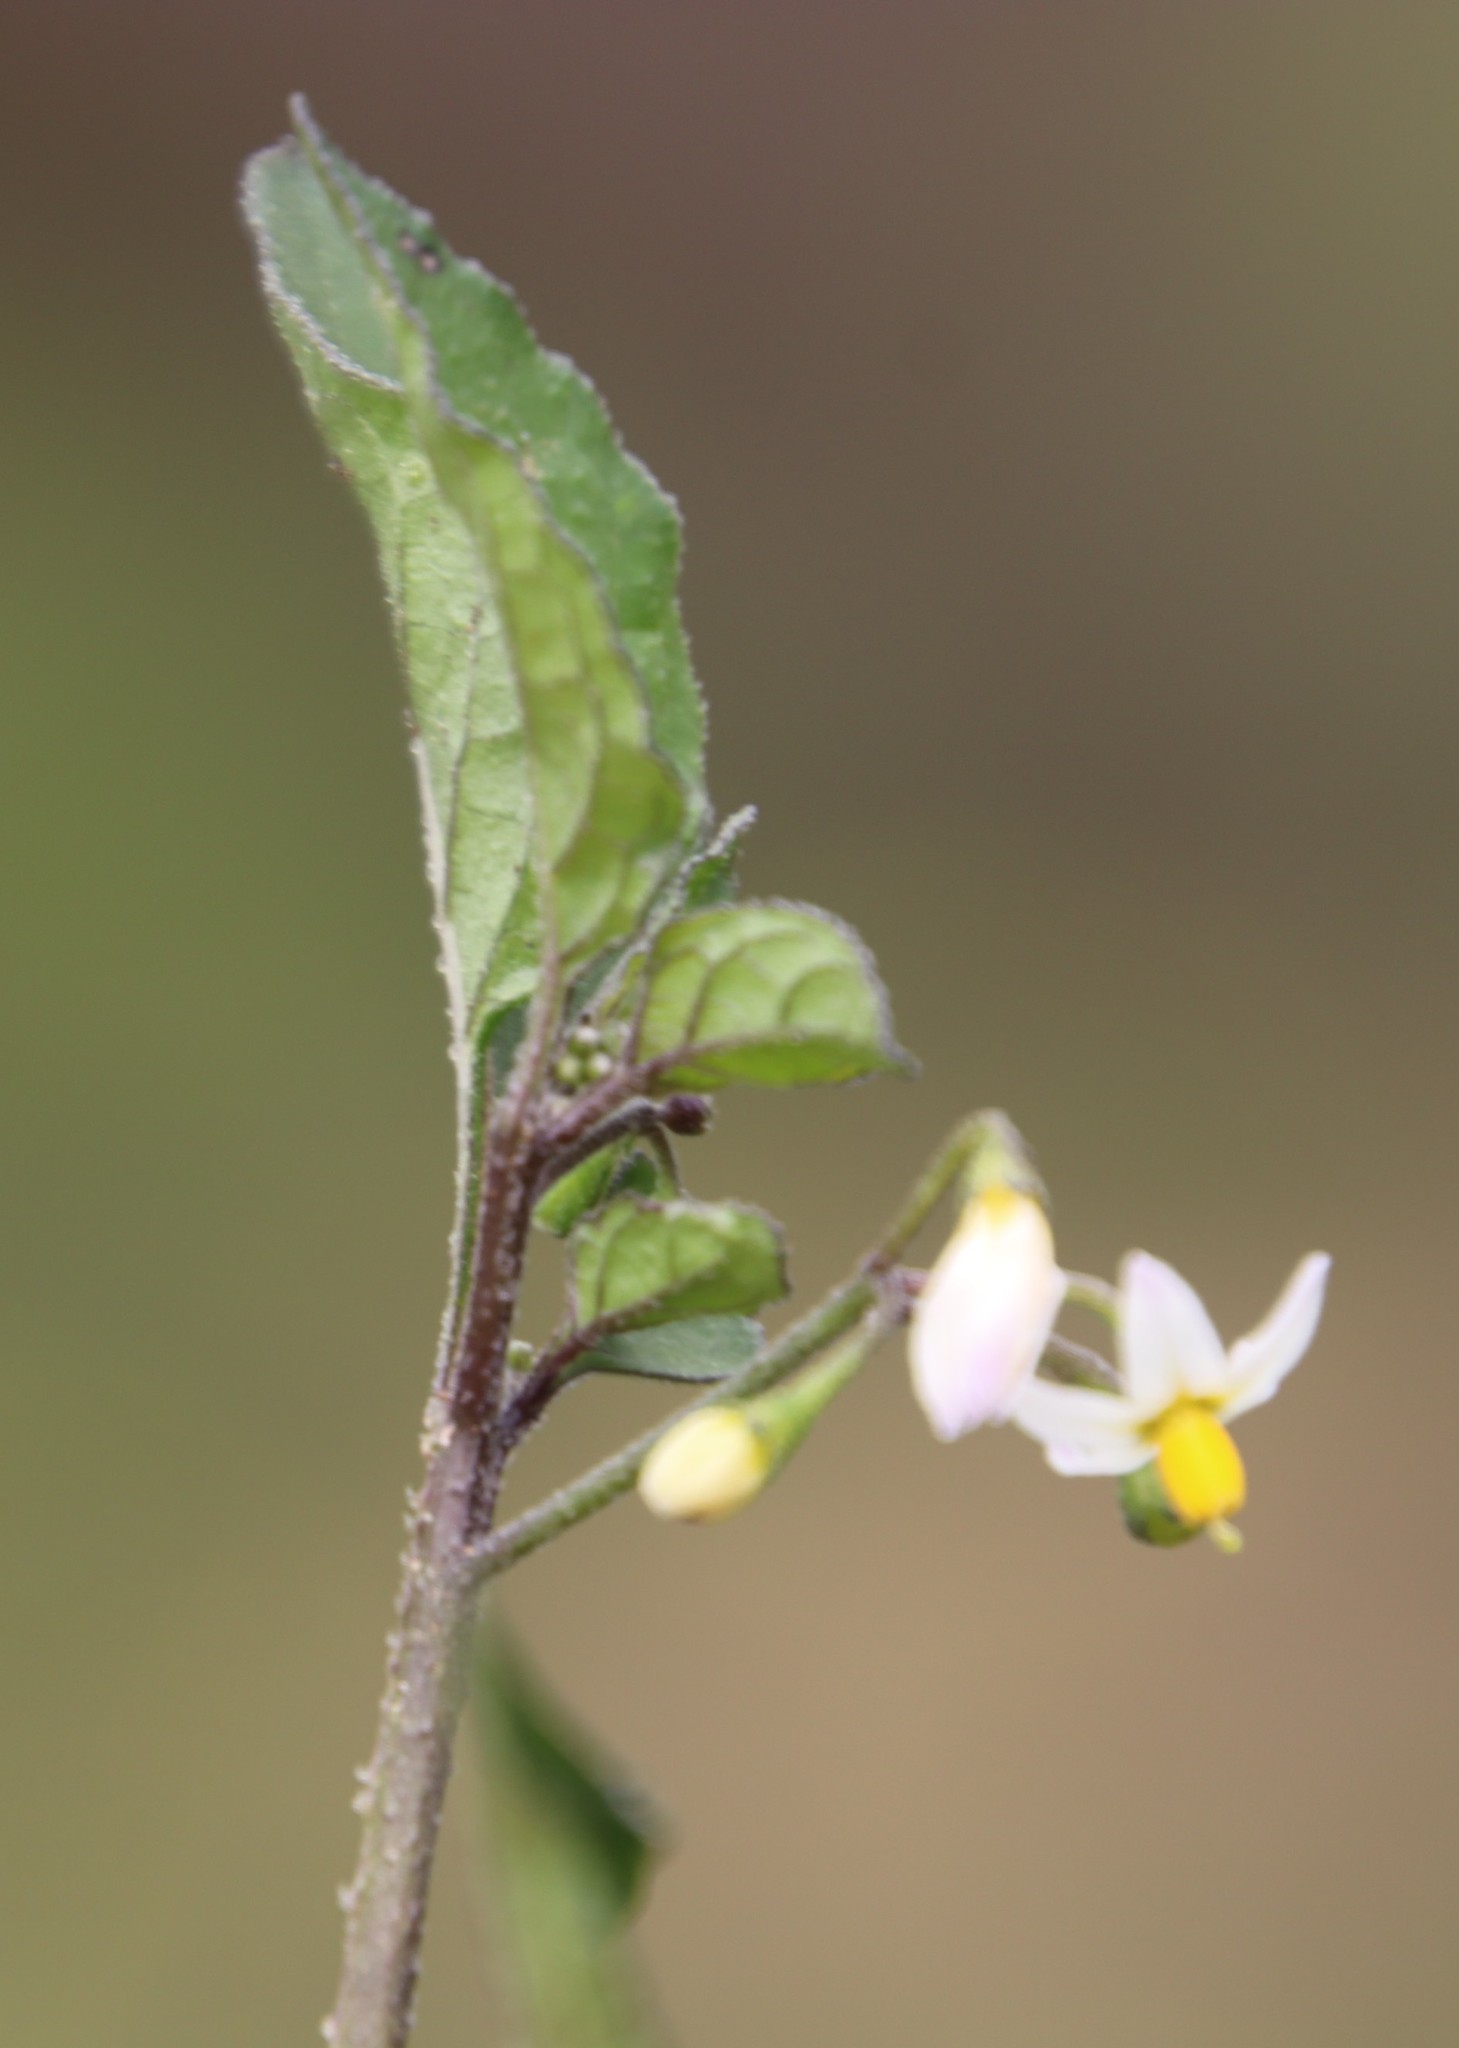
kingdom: Plantae
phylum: Tracheophyta
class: Magnoliopsida
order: Solanales
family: Solanaceae
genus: Solanum
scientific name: Solanum nigrum
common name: Black nightshade
